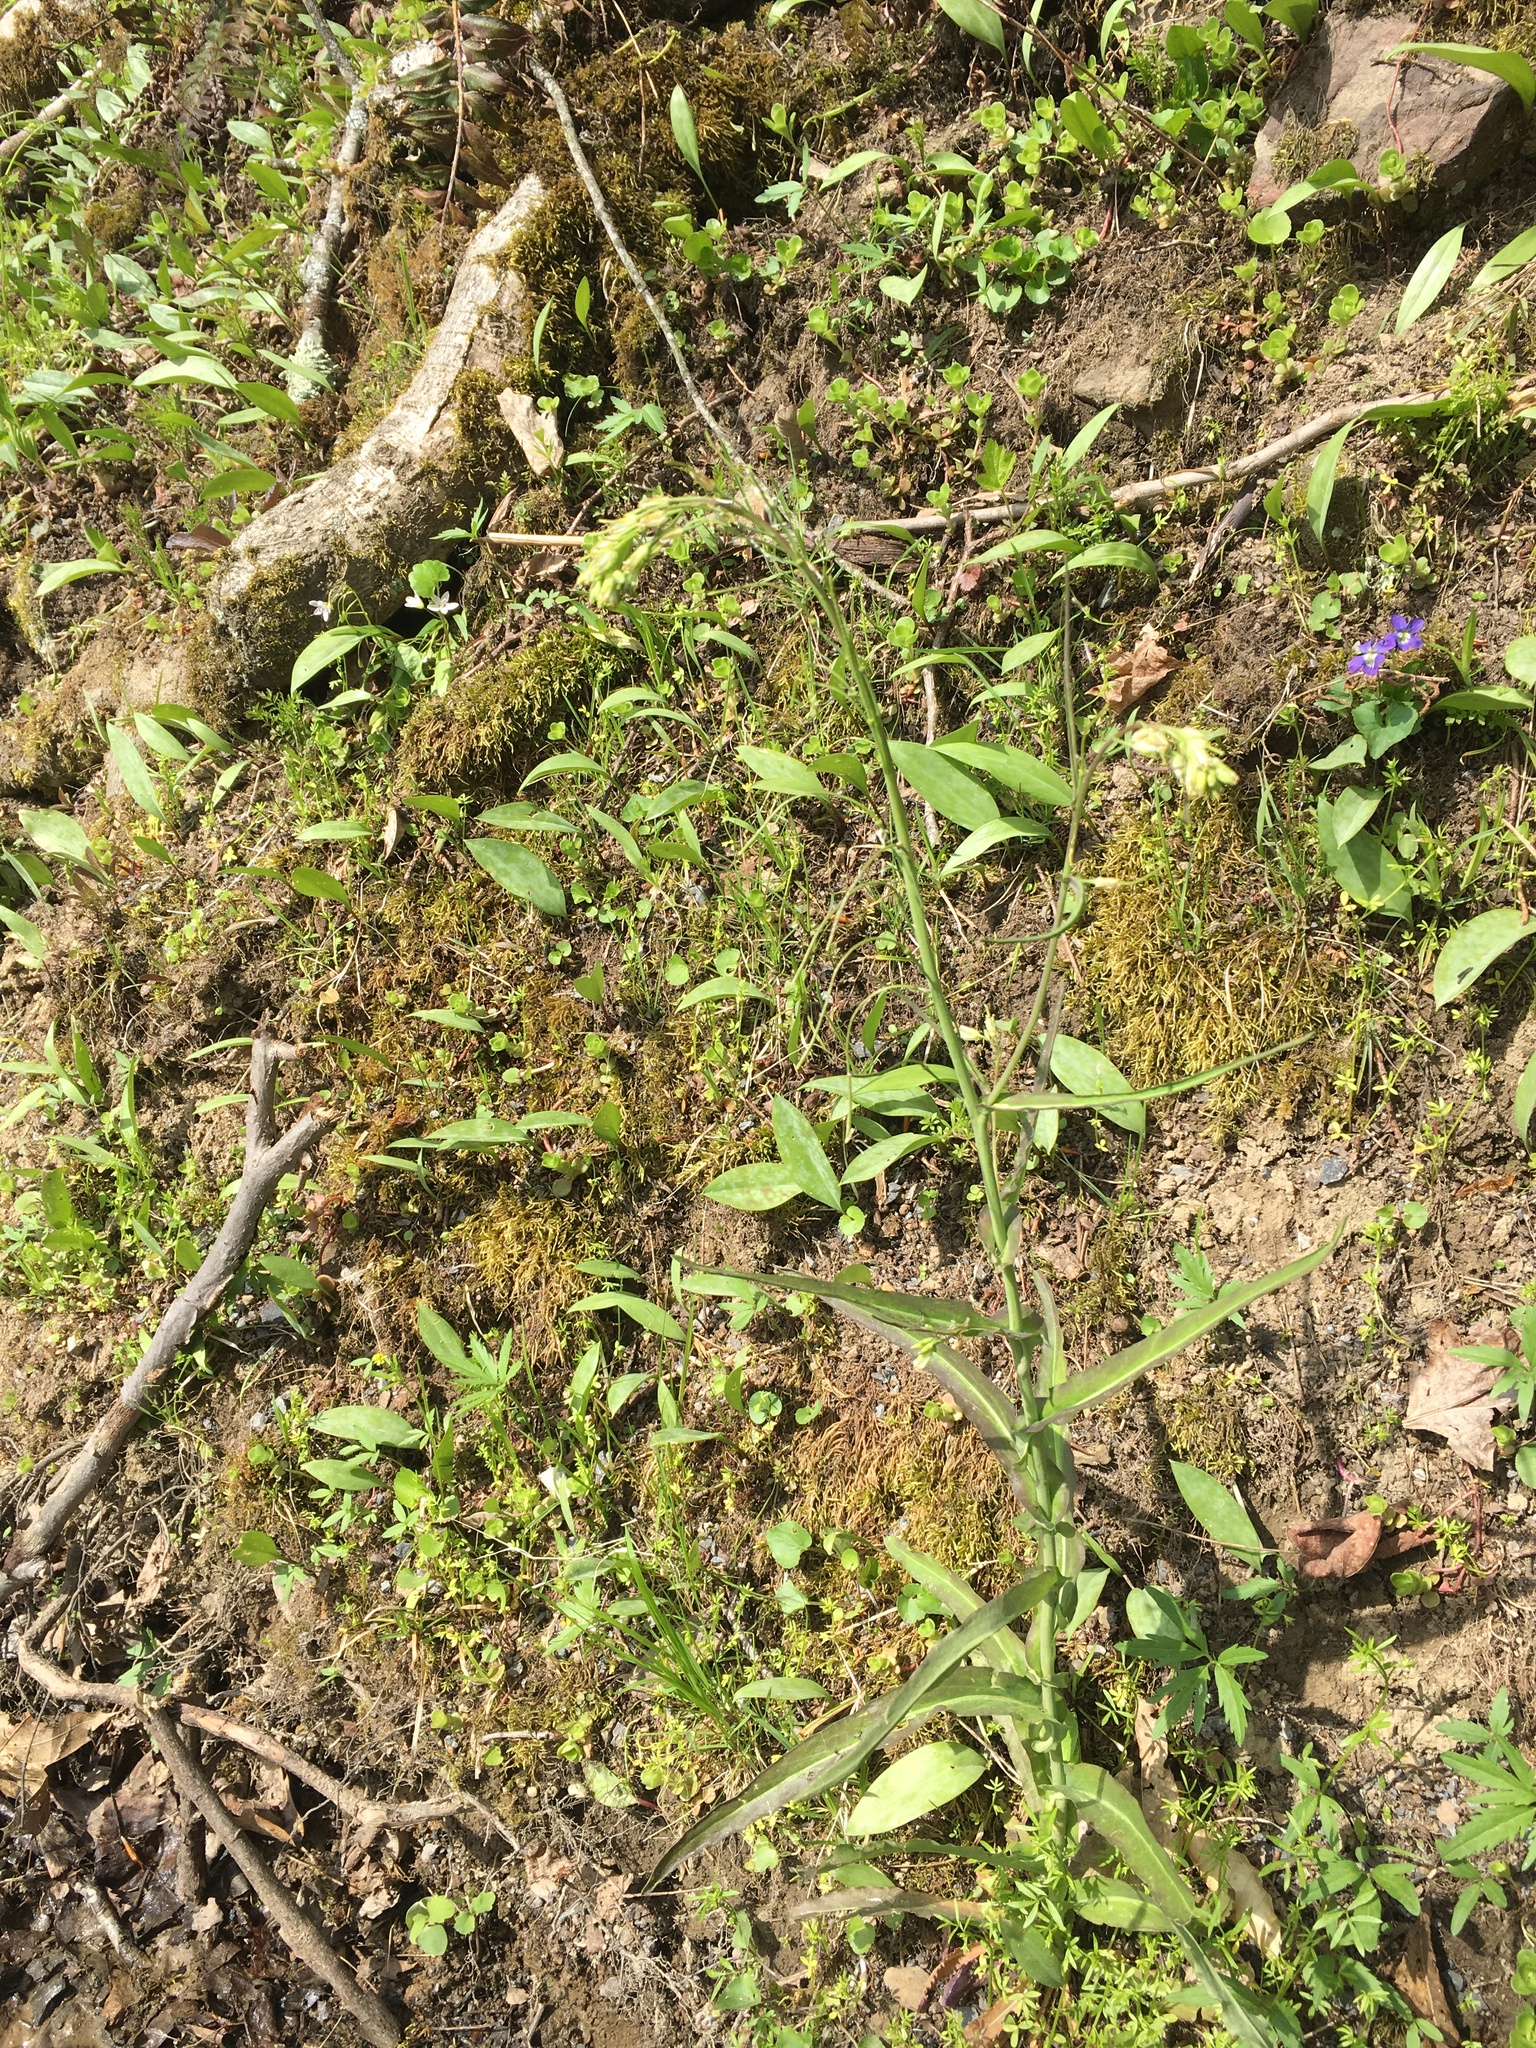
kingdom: Plantae
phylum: Tracheophyta
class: Magnoliopsida
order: Brassicales
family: Brassicaceae
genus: Borodinia
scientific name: Borodinia laevigata
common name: Smooth rockcress
